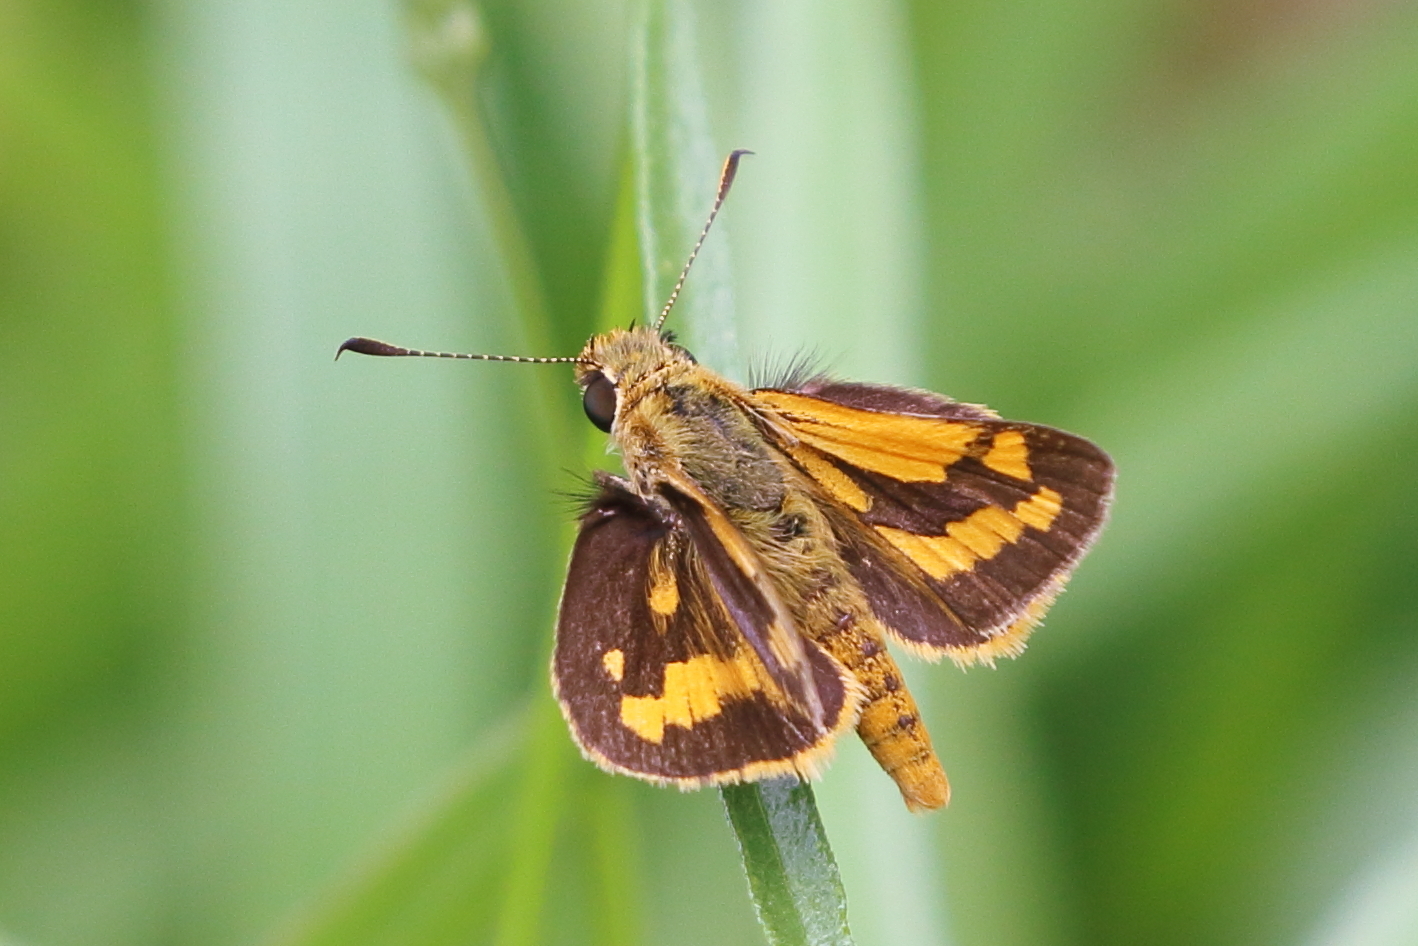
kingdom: Animalia
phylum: Arthropoda
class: Insecta
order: Lepidoptera
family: Hesperiidae
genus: Ocybadistes
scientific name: Ocybadistes walkeri
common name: Yellow-banded dart
